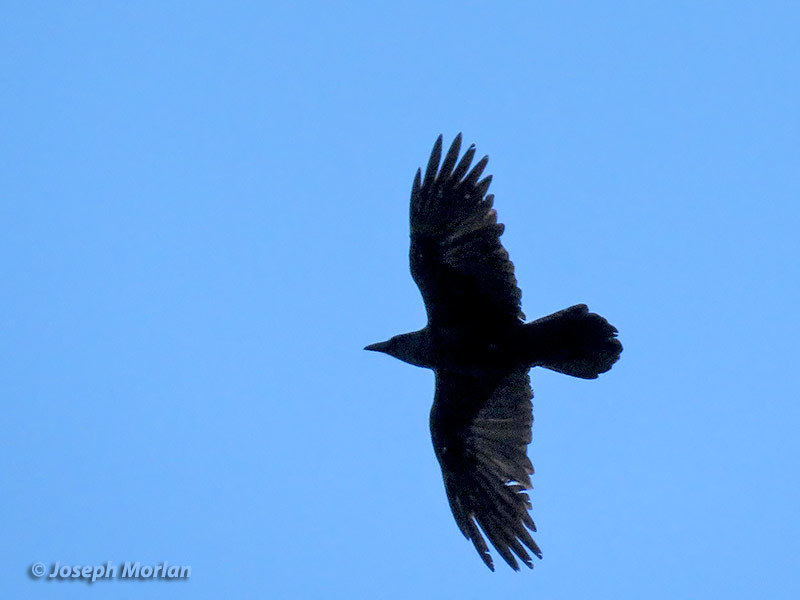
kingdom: Animalia
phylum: Chordata
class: Aves
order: Passeriformes
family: Corvidae
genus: Corvus
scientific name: Corvus corax
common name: Common raven
